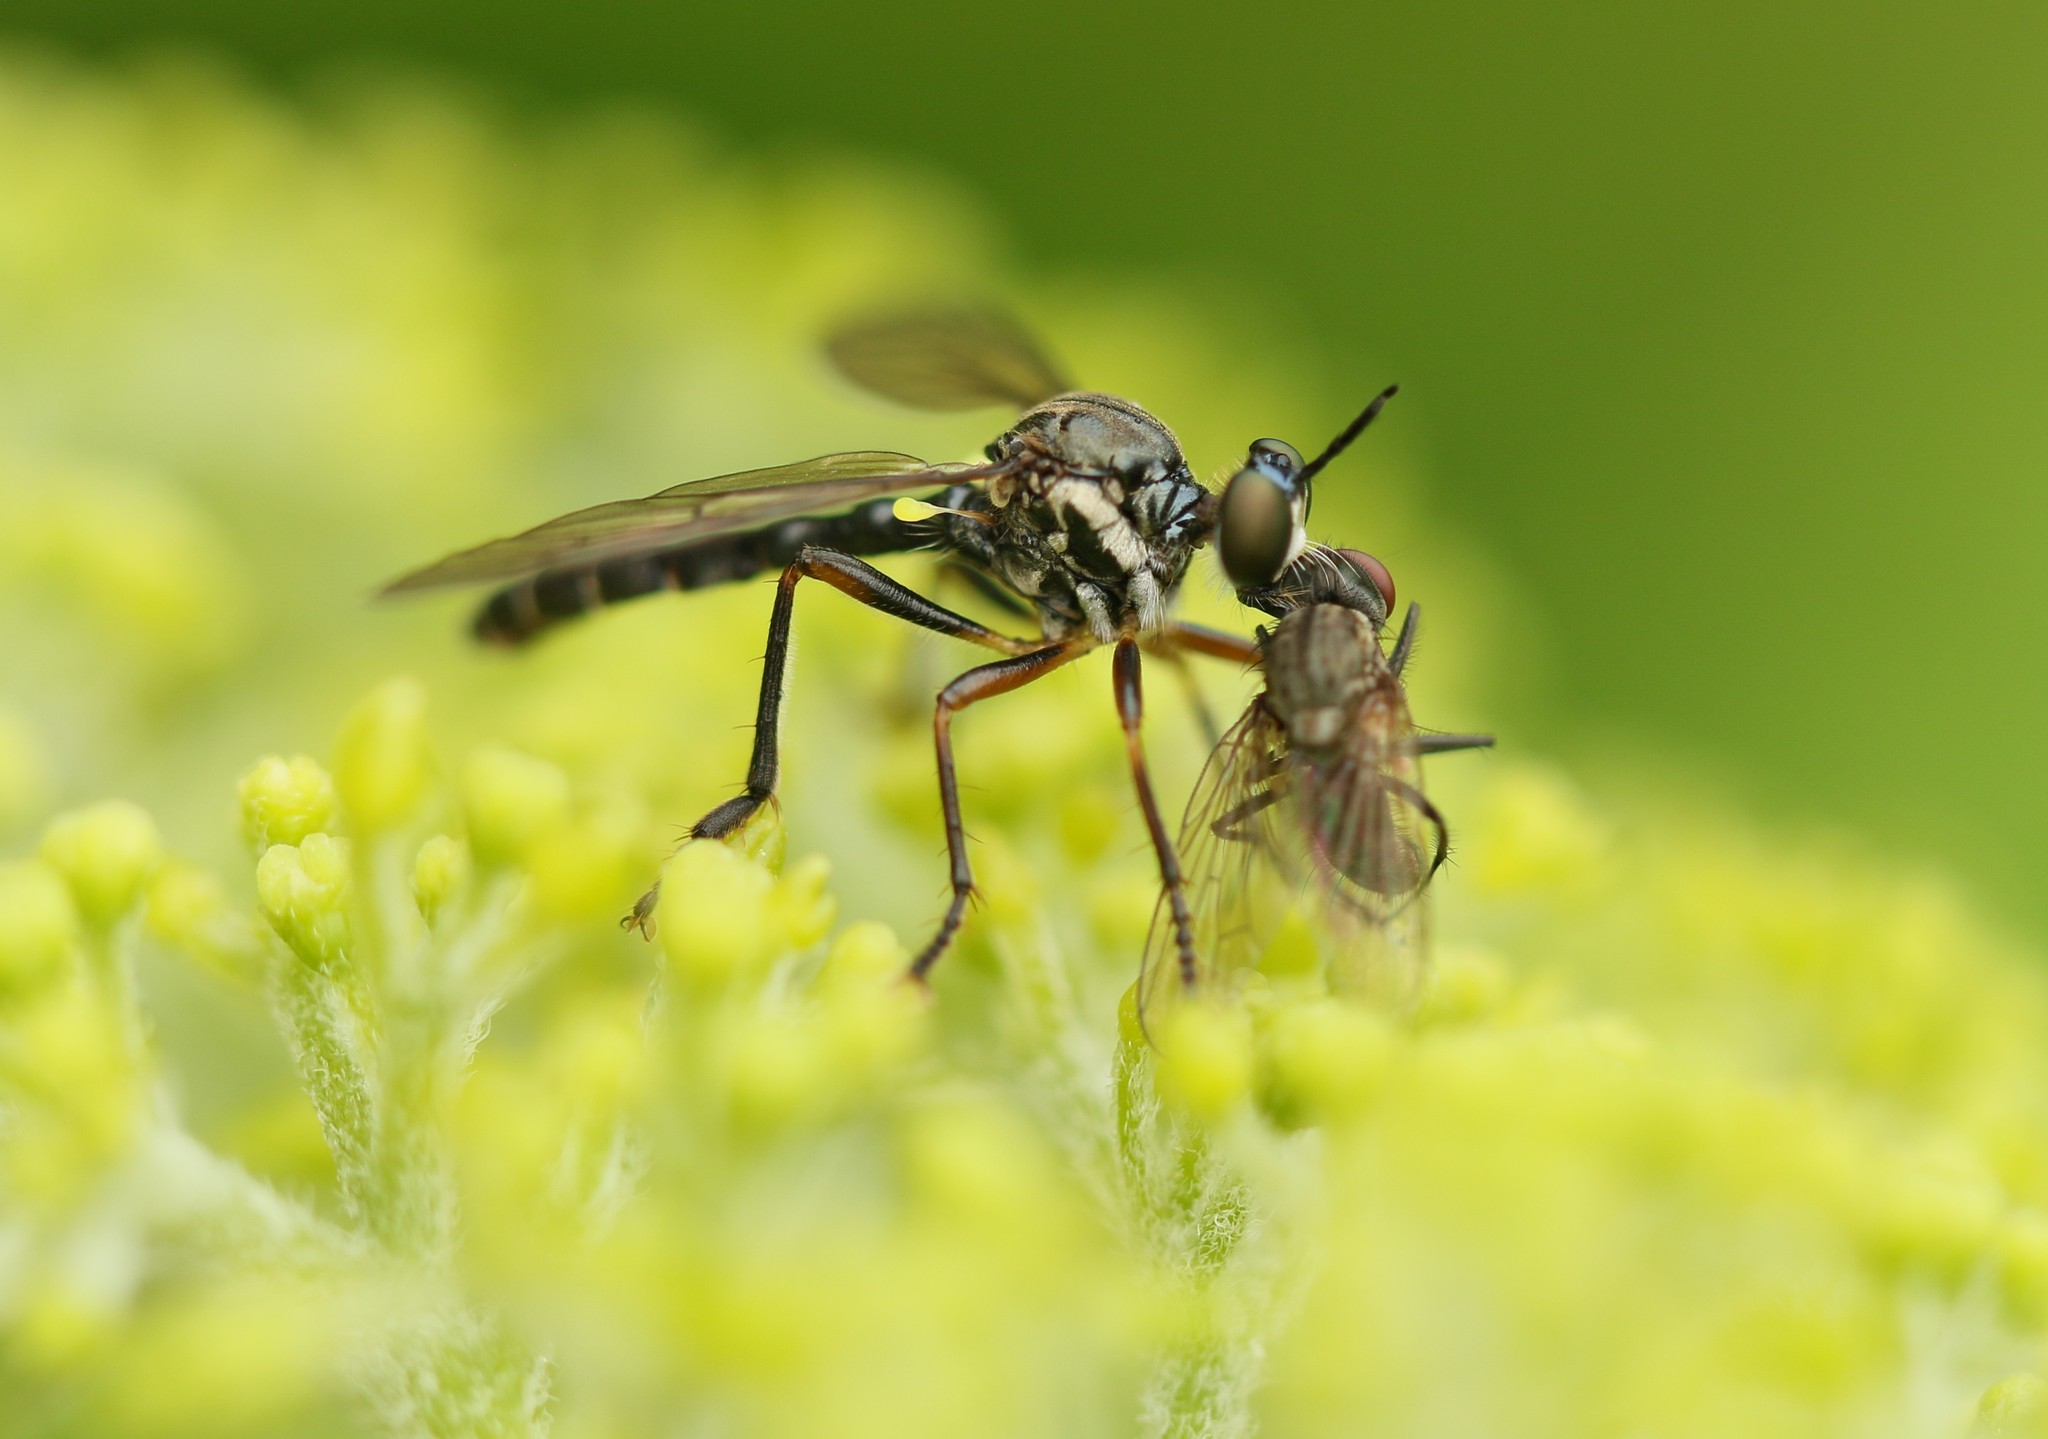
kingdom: Animalia
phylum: Arthropoda
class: Insecta
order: Diptera
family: Asilidae
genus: Dioctria
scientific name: Dioctria hyalipennis
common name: Stripe-legged robberfly
